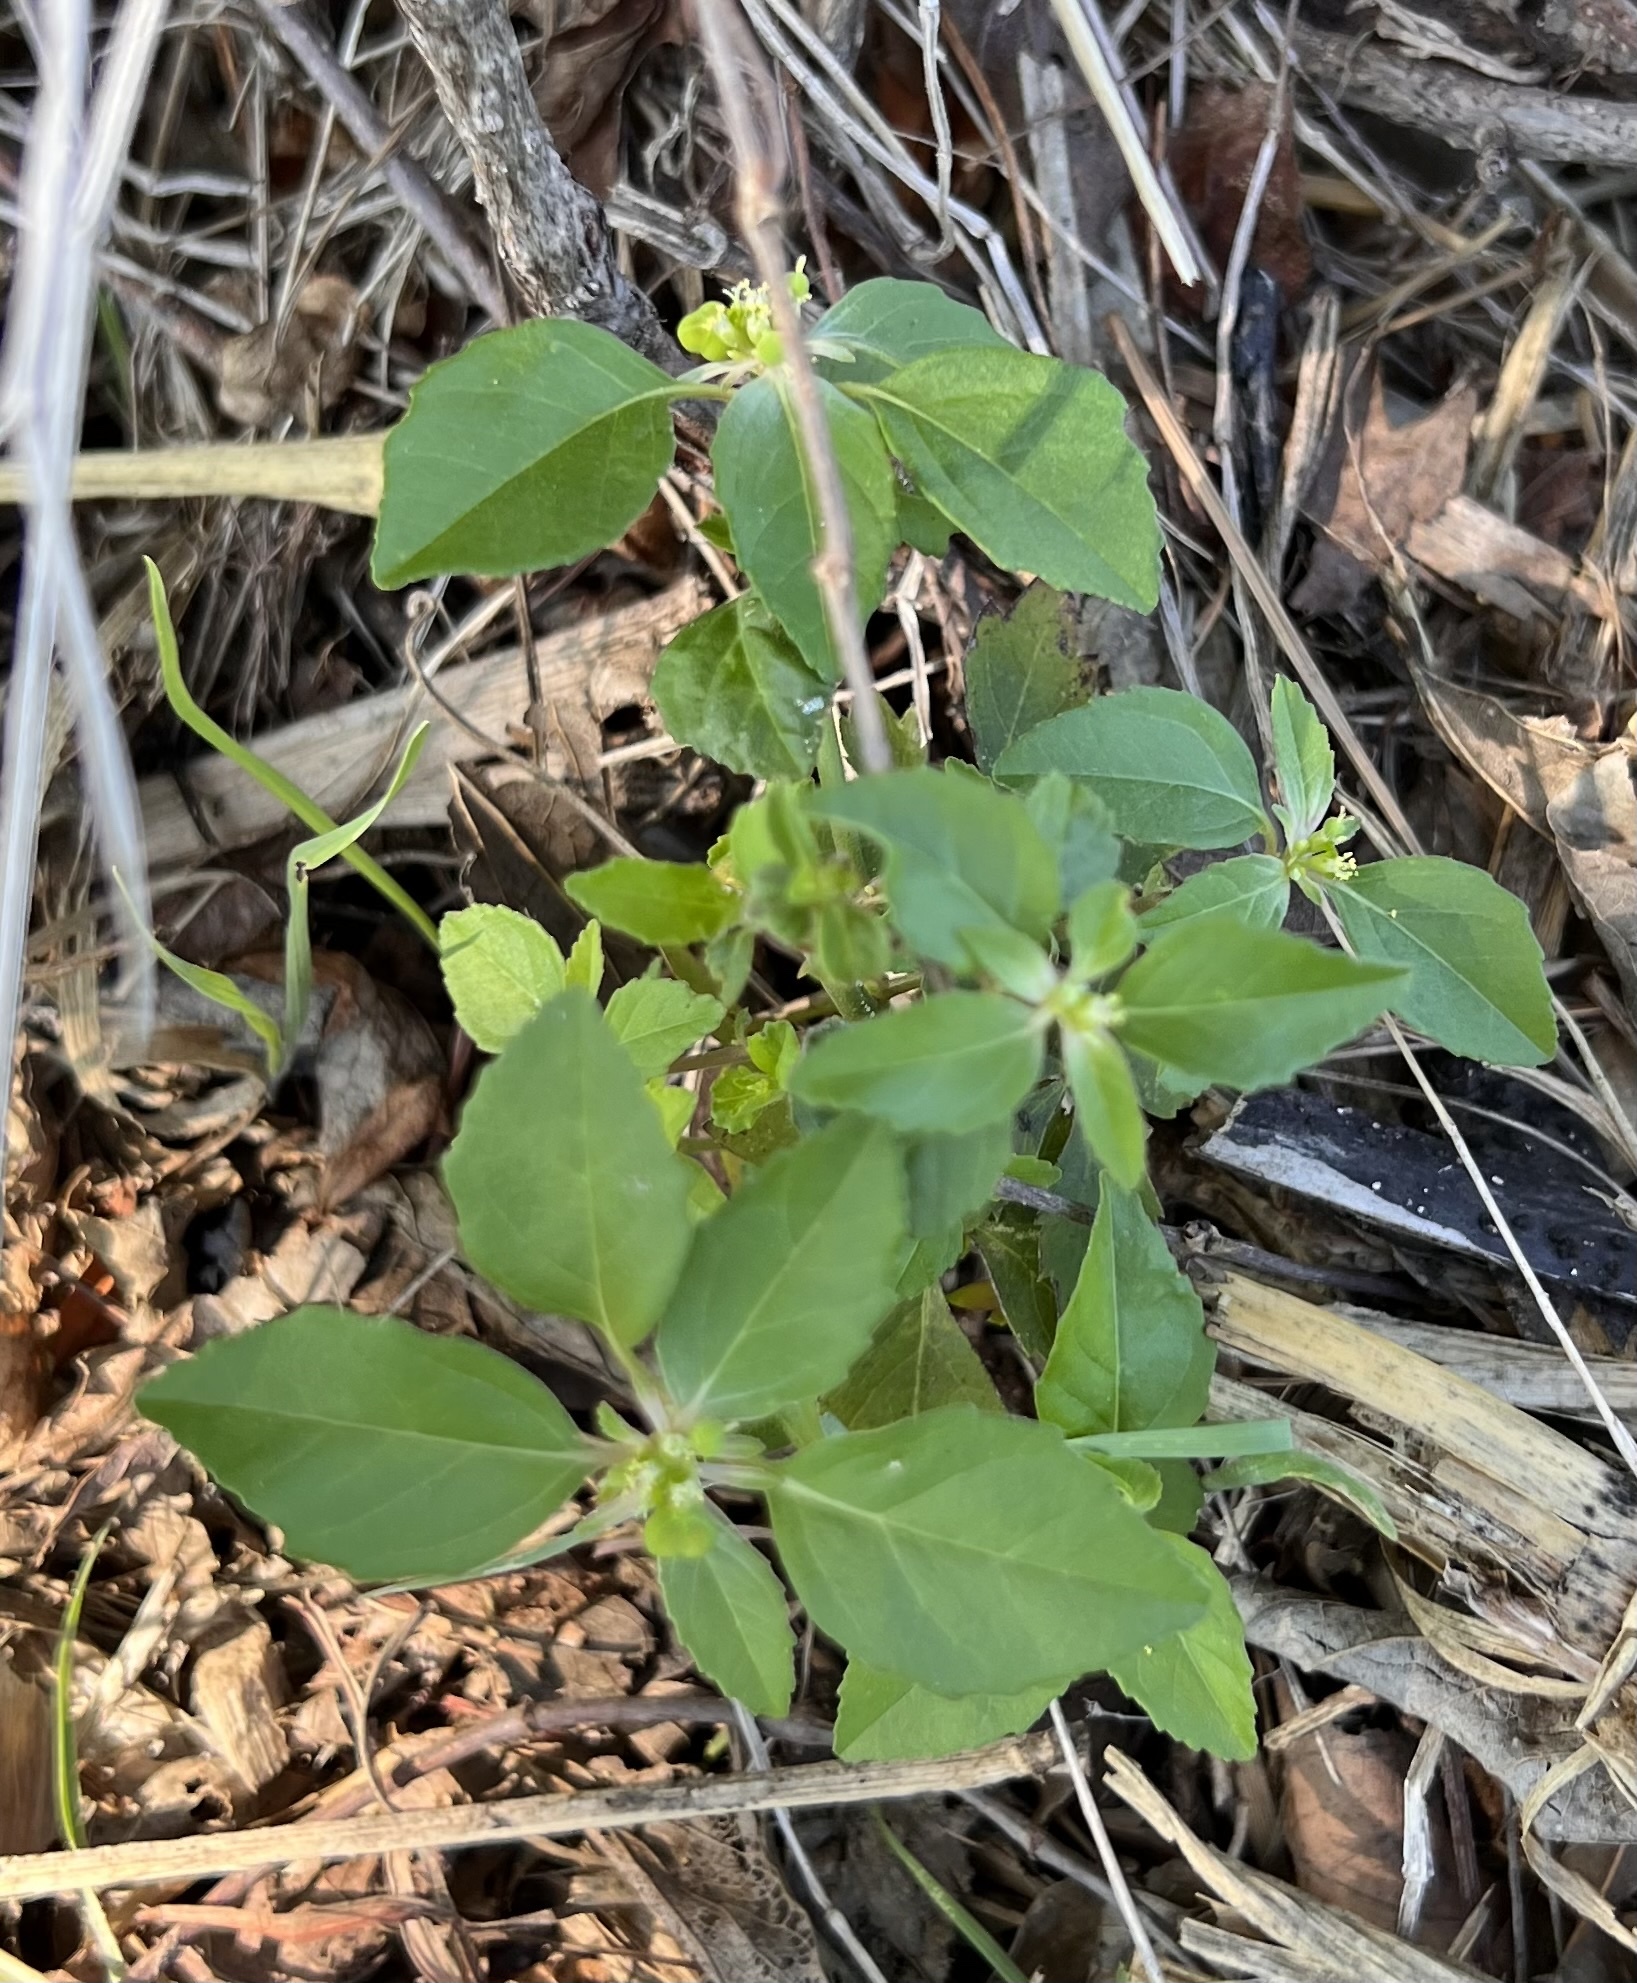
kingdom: Plantae
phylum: Tracheophyta
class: Magnoliopsida
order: Malpighiales
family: Euphorbiaceae
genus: Euphorbia
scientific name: Euphorbia dentata
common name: Dentate spurge
